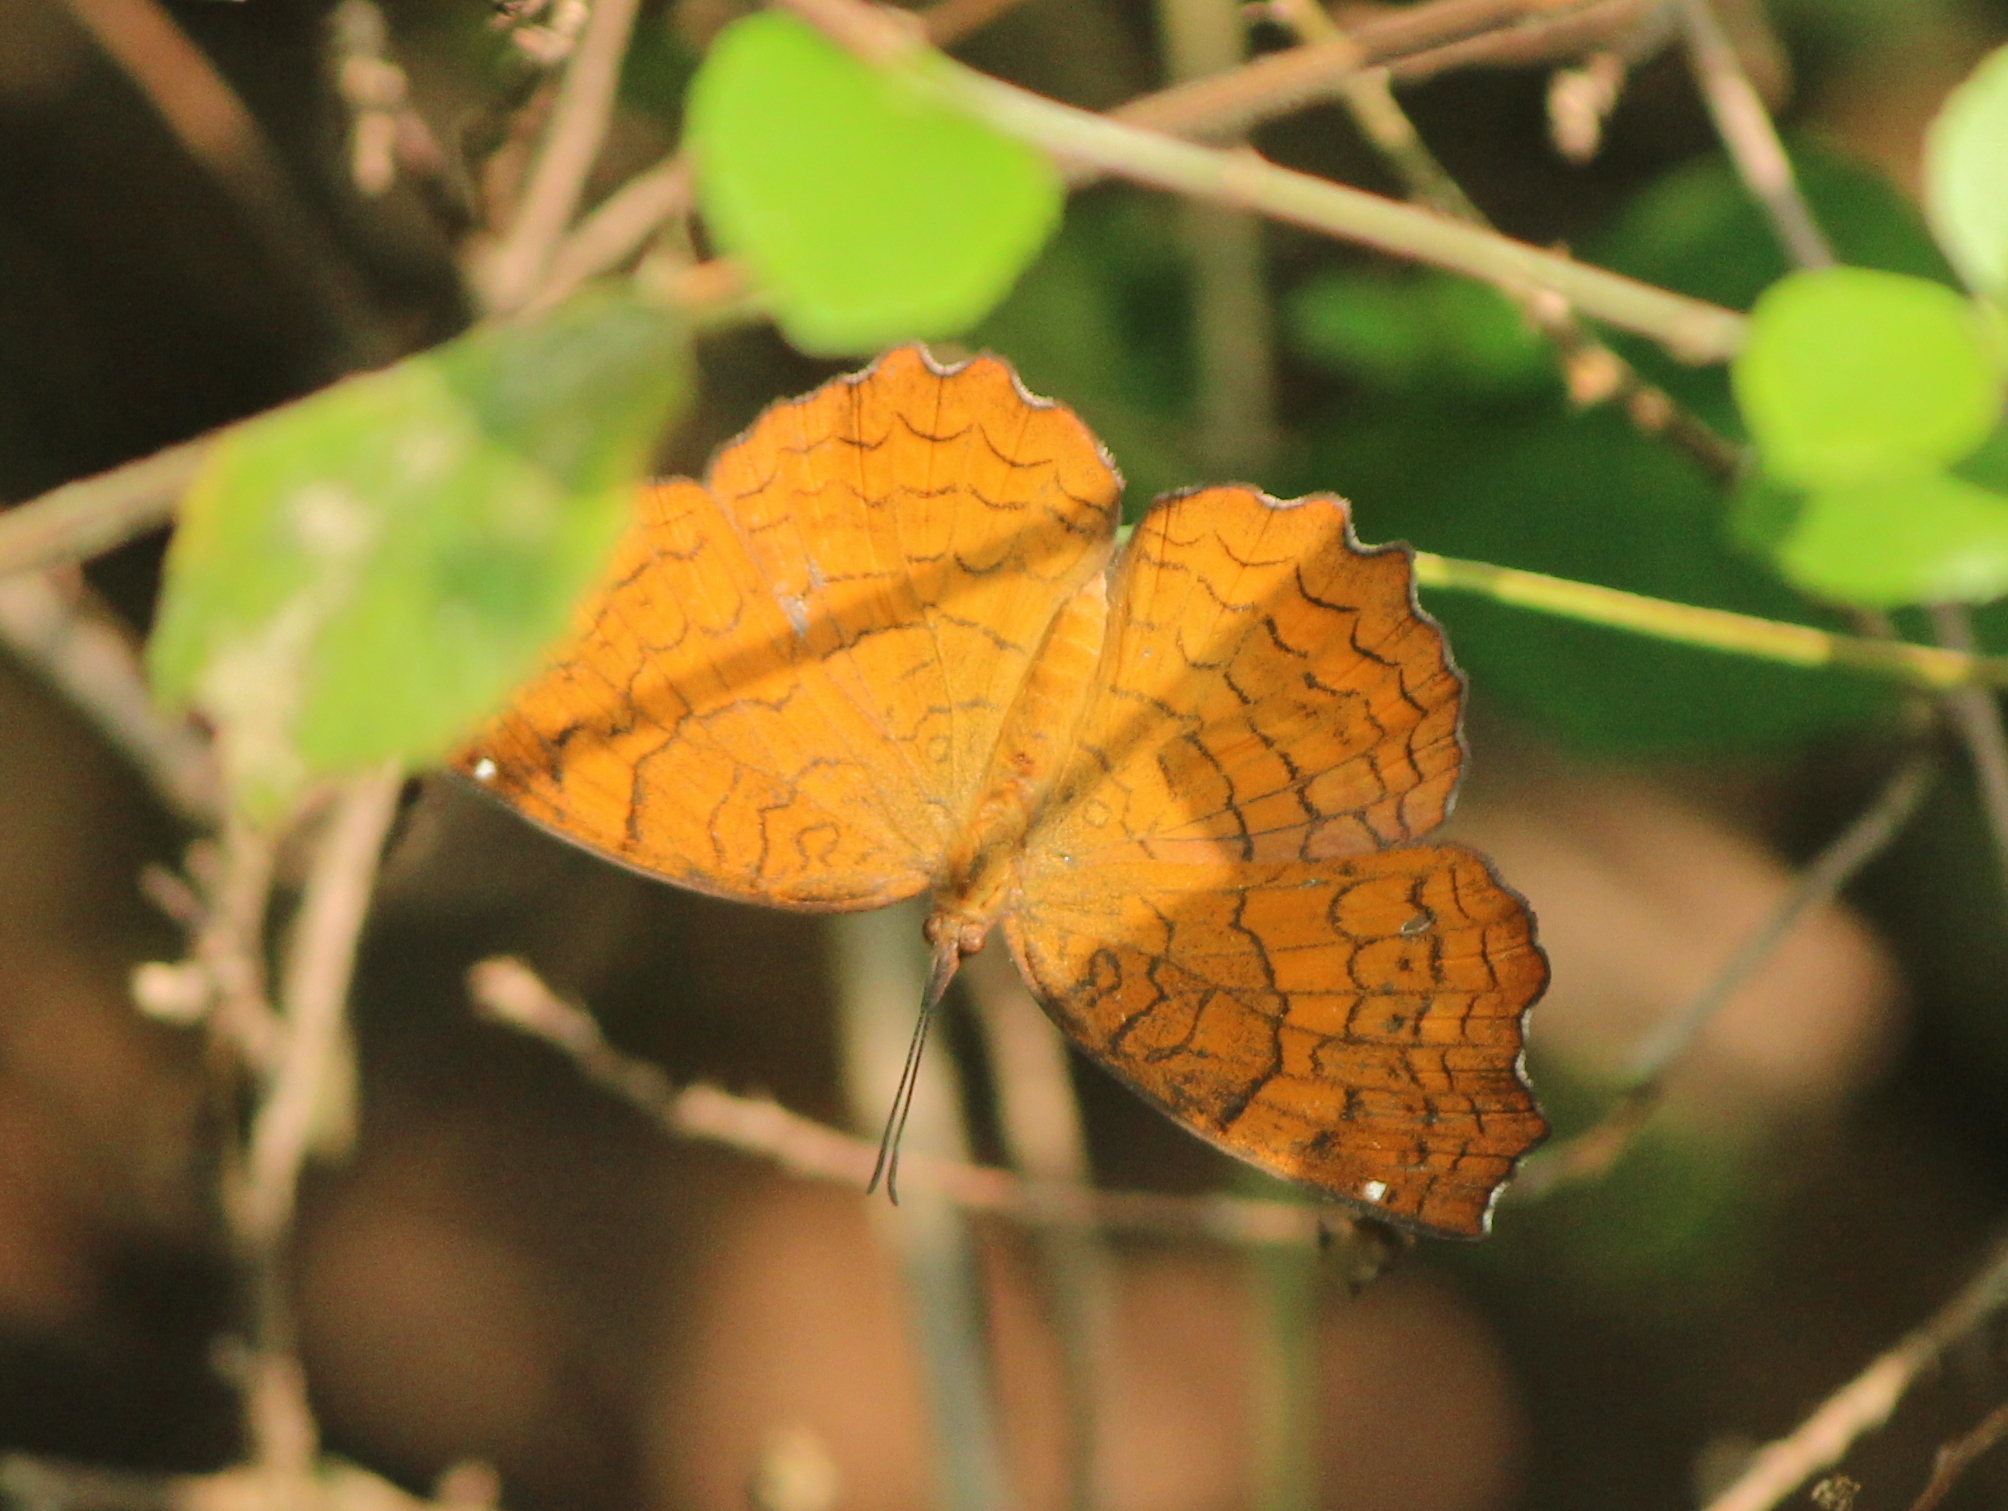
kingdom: Animalia
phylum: Arthropoda
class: Insecta
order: Lepidoptera
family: Nymphalidae
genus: Ariadne
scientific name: Ariadne ariadne
